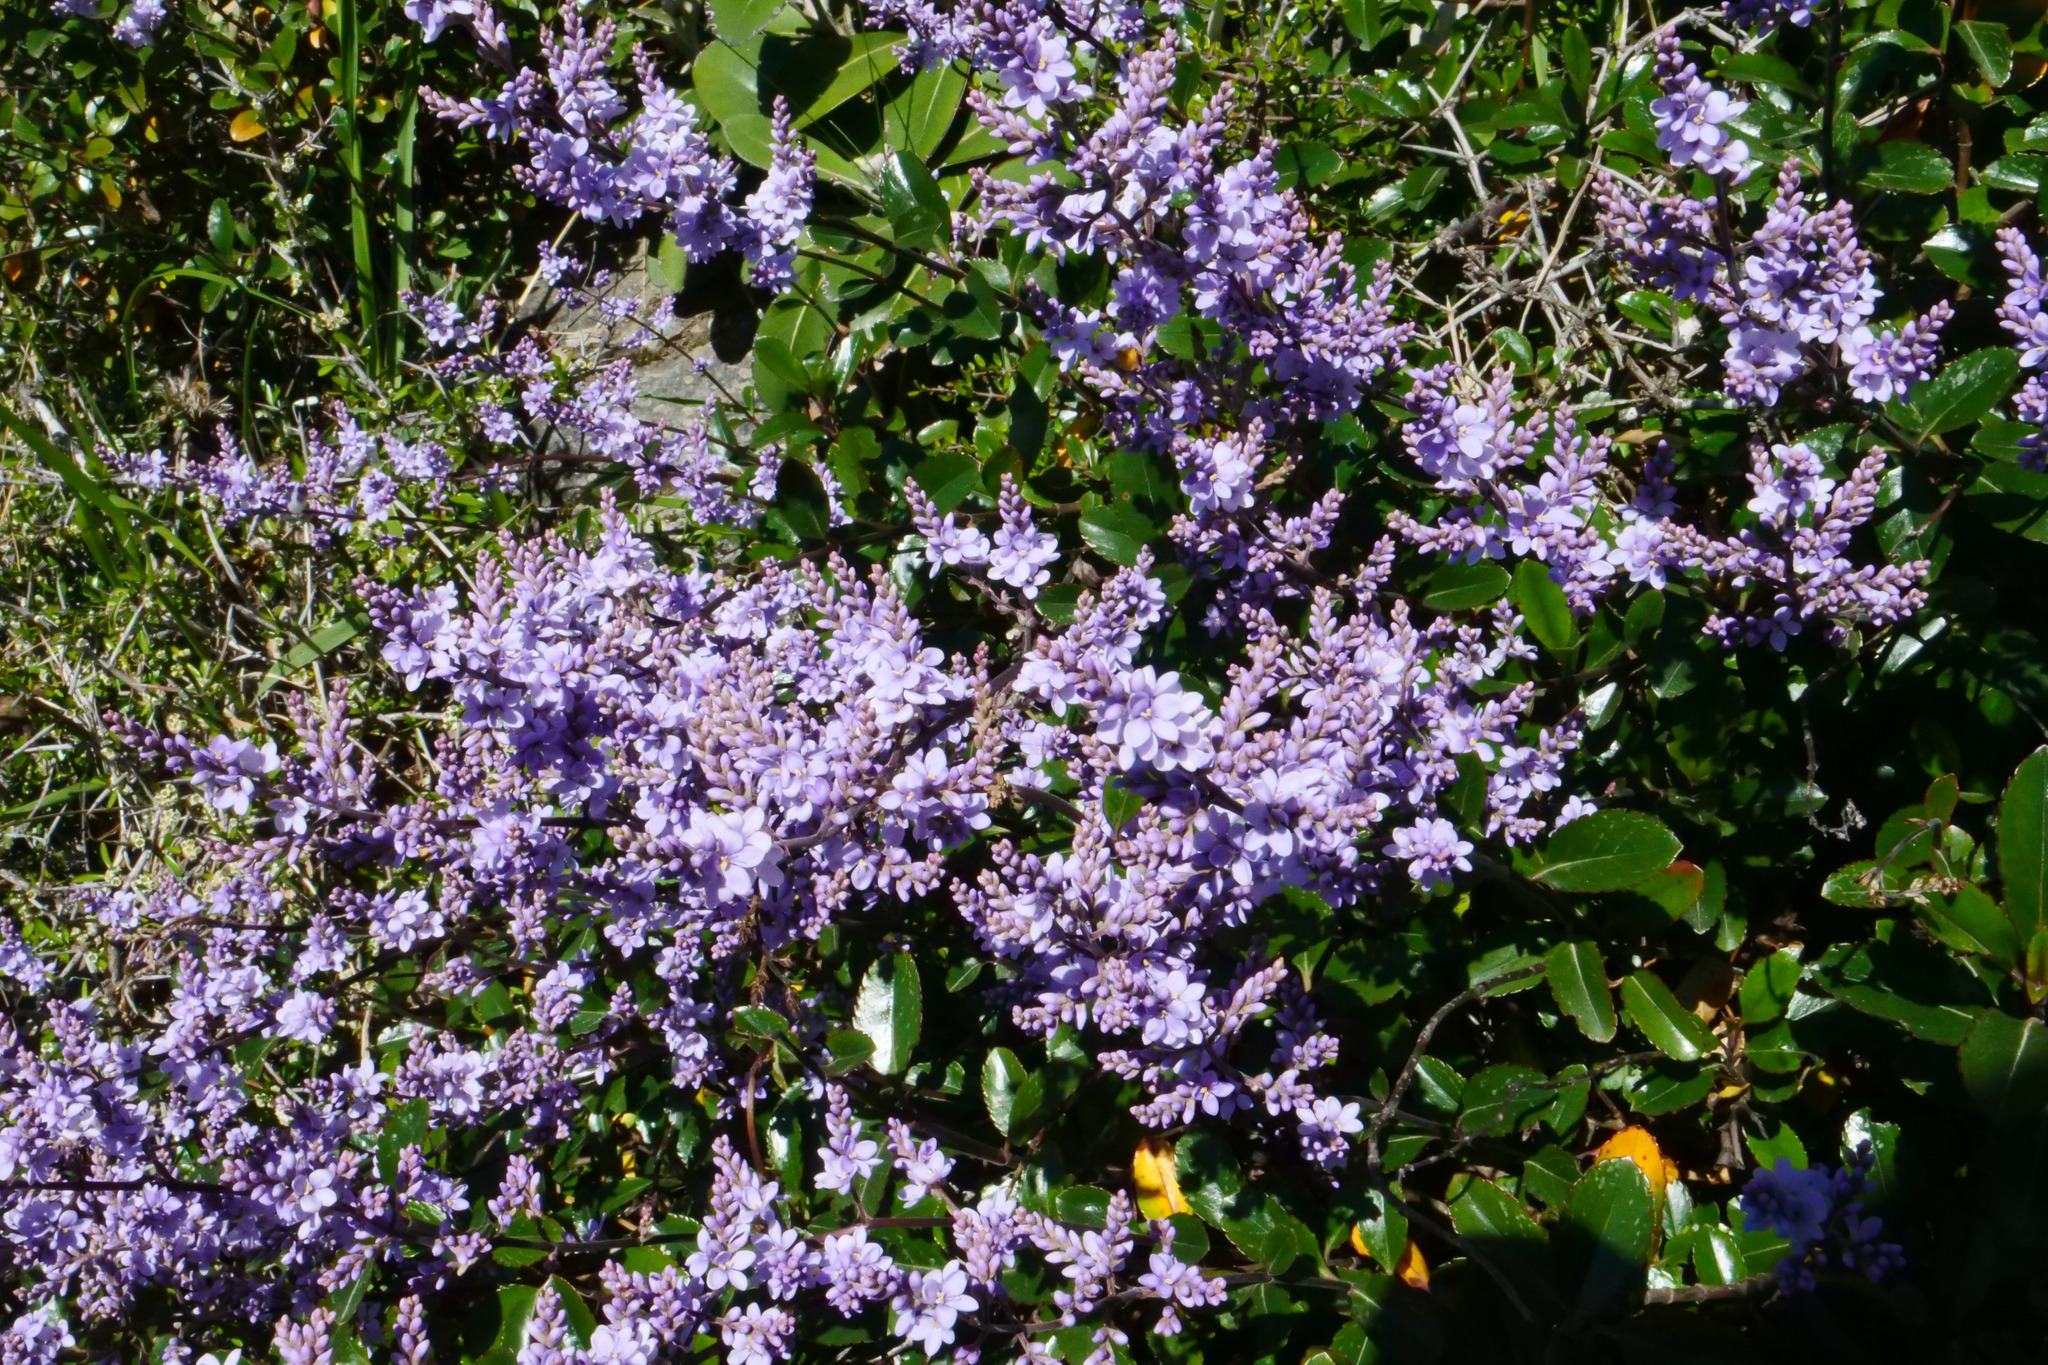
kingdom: Plantae
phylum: Tracheophyta
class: Magnoliopsida
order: Lamiales
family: Plantaginaceae
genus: Veronica
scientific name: Veronica hulkeana
